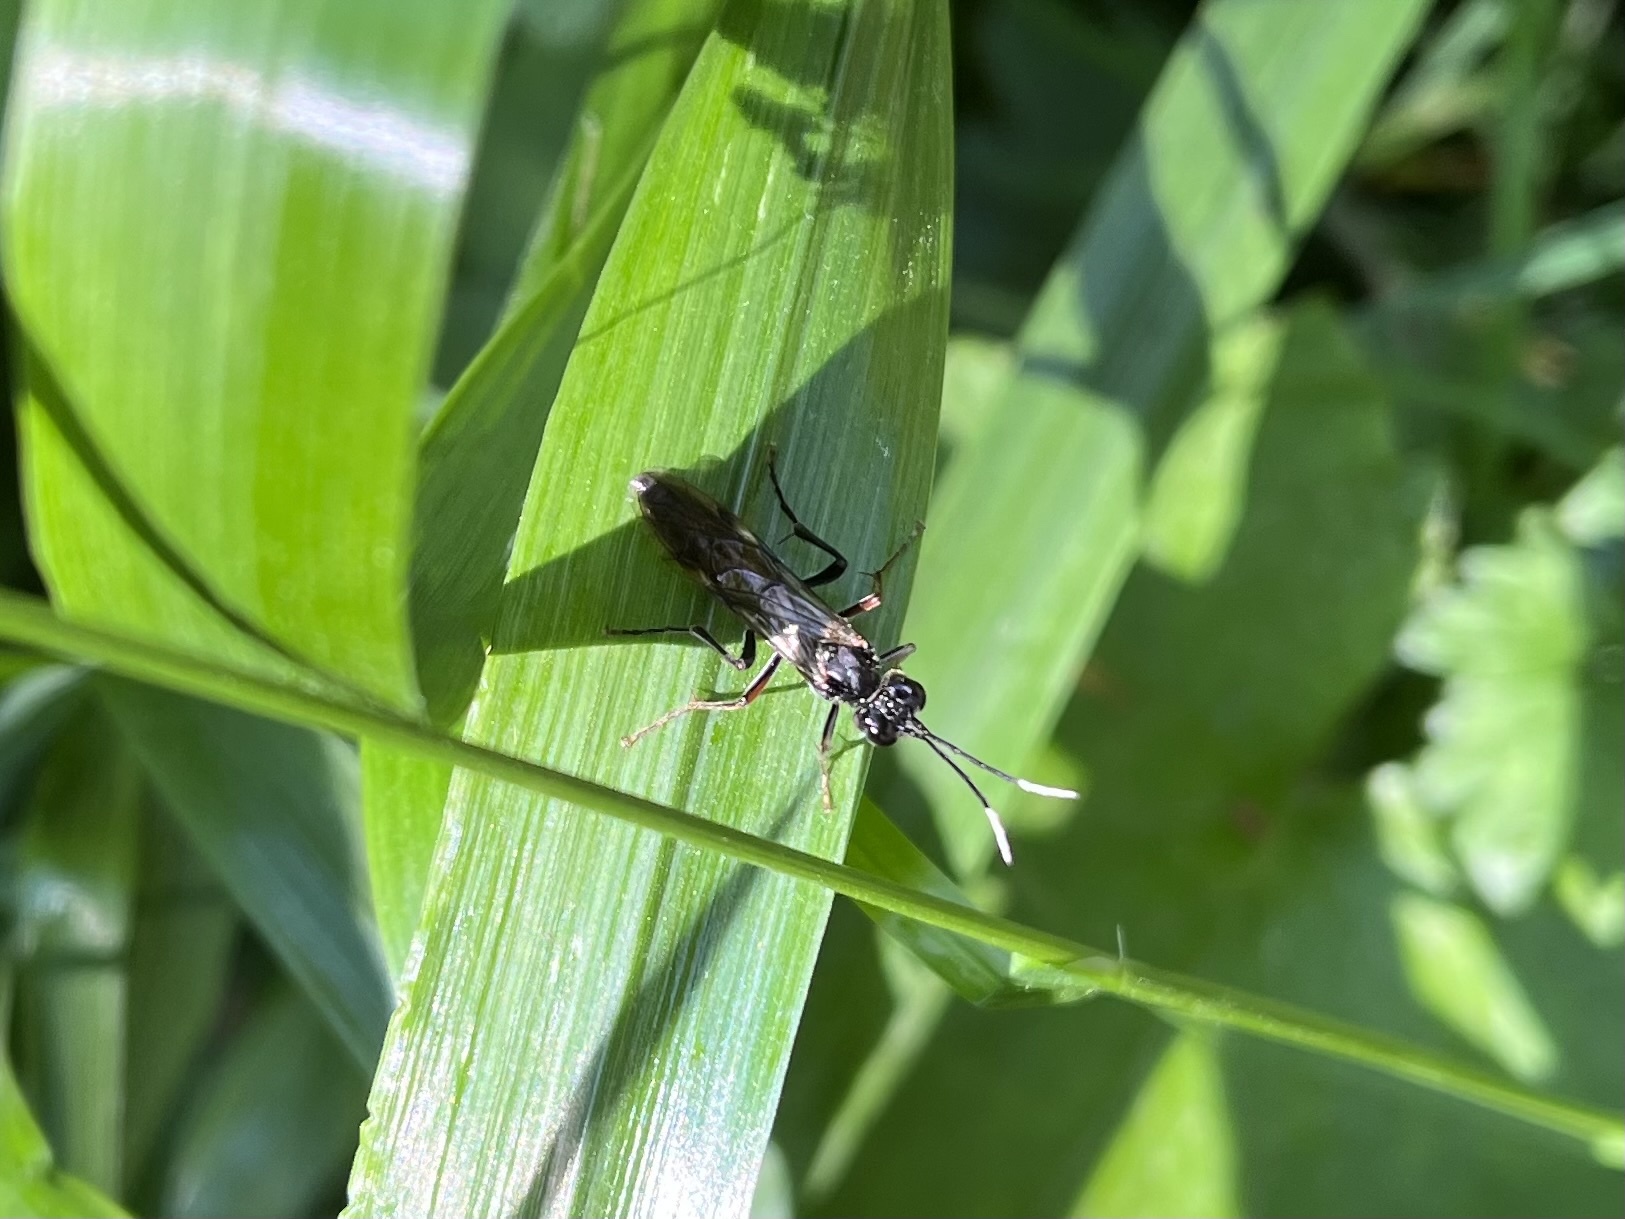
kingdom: Animalia
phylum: Arthropoda
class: Insecta
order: Hymenoptera
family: Tenthredinidae
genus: Tenthredo
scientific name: Tenthredo livida
